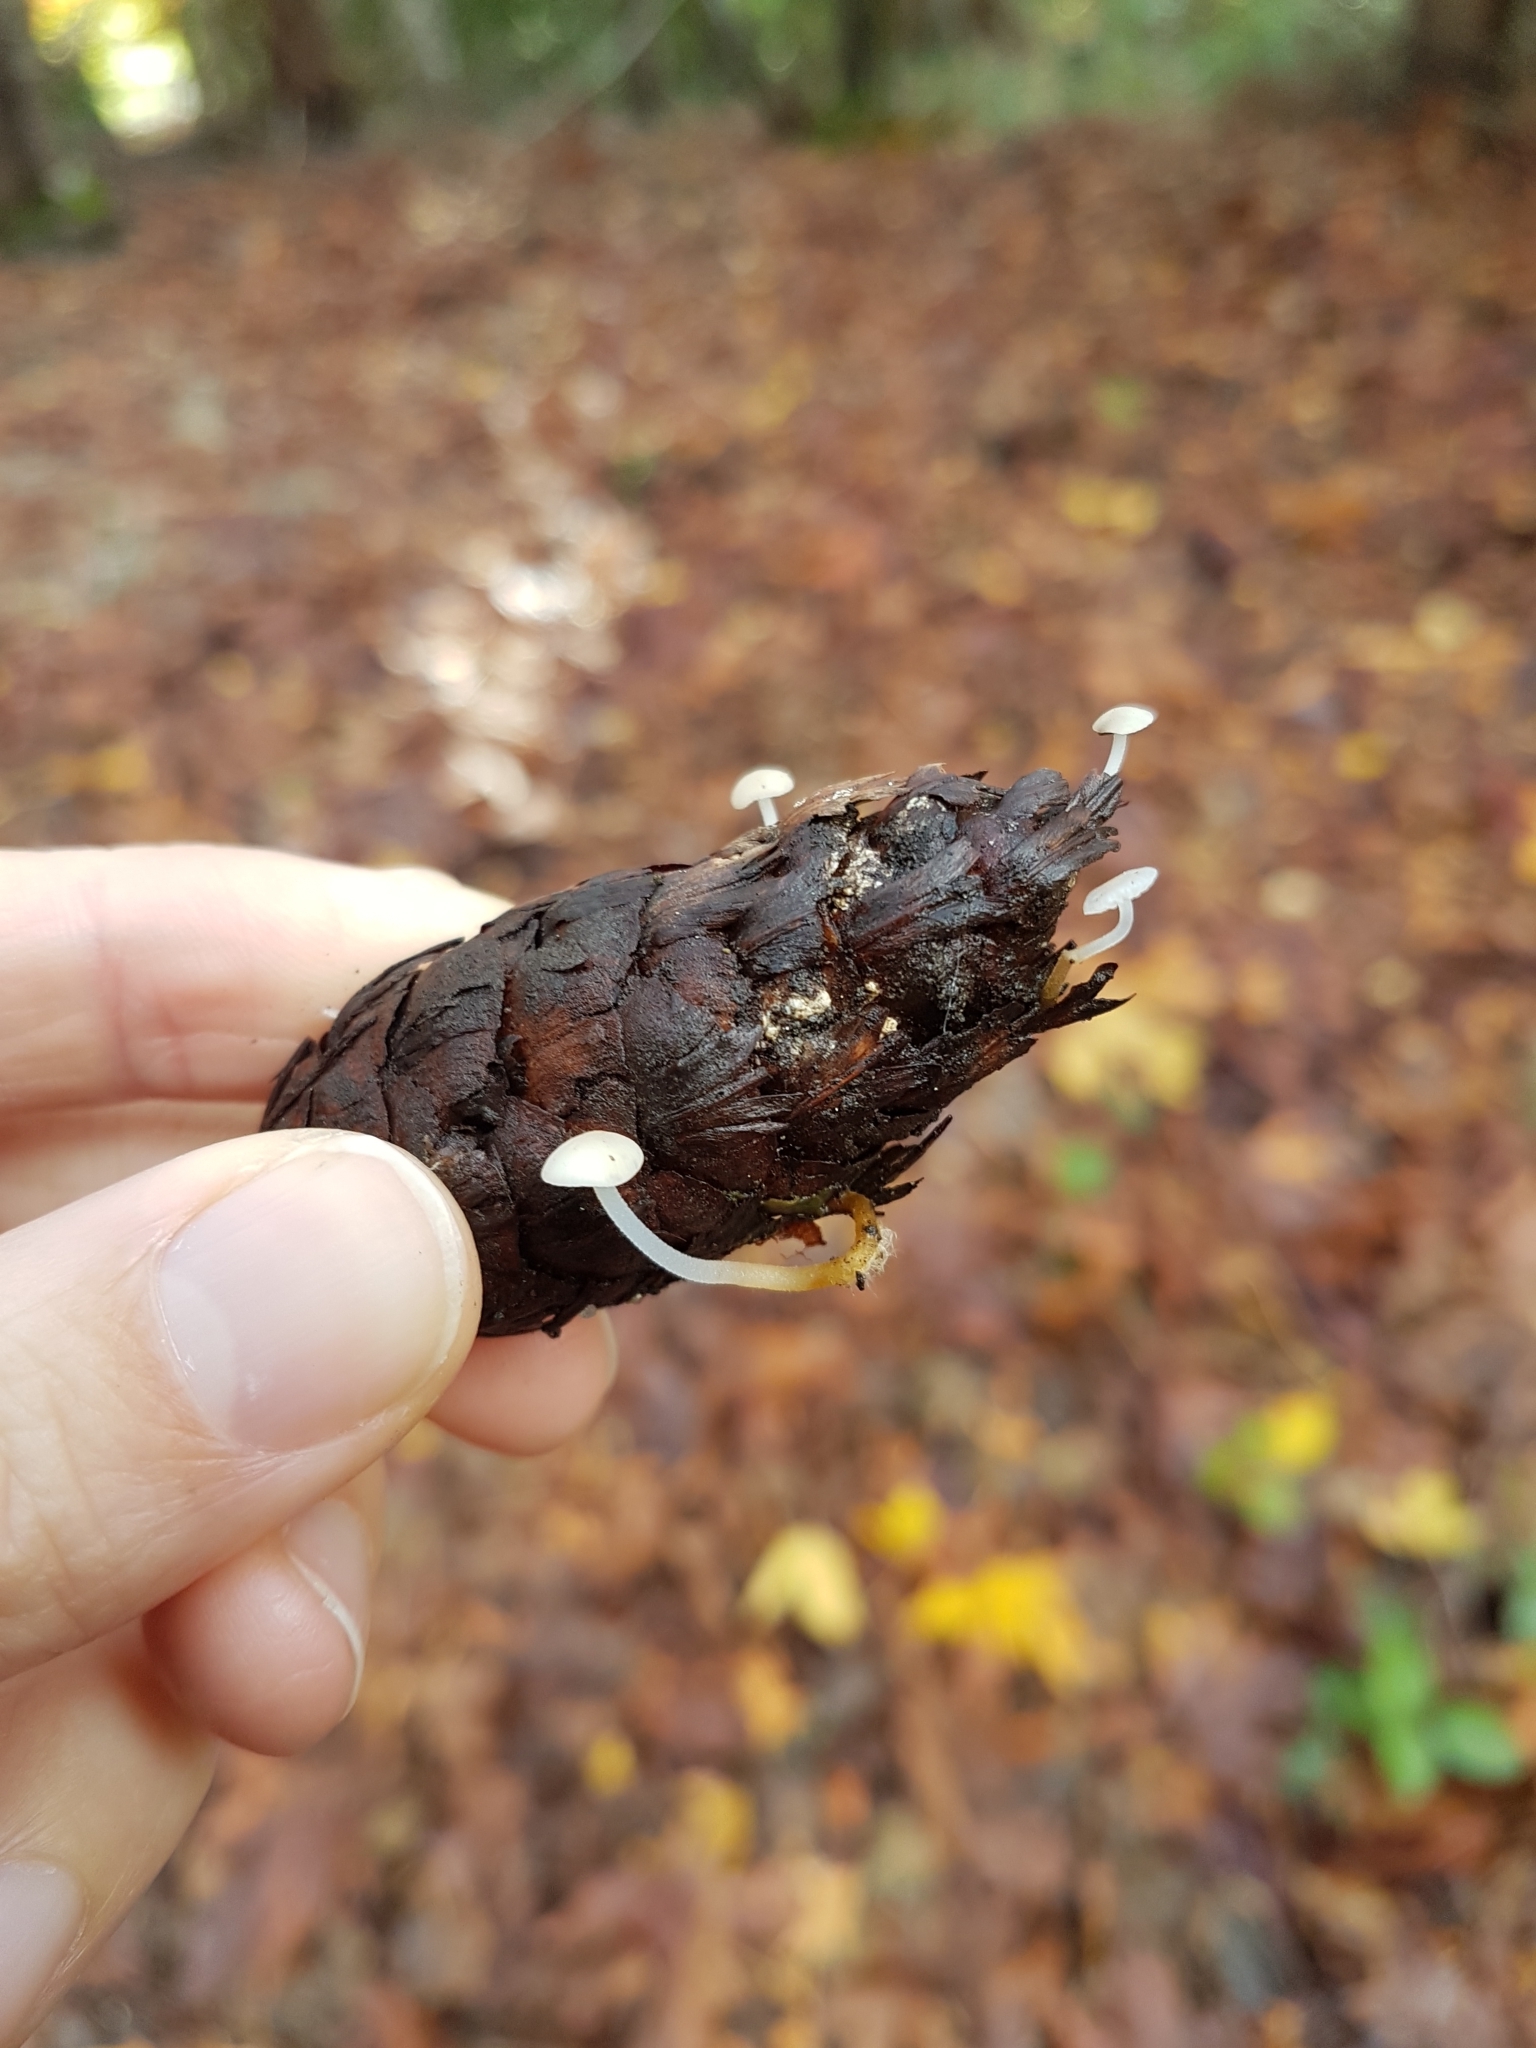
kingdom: Fungi
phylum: Basidiomycota
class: Agaricomycetes
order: Agaricales
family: Physalacriaceae
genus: Strobilurus
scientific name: Strobilurus trullisatus
